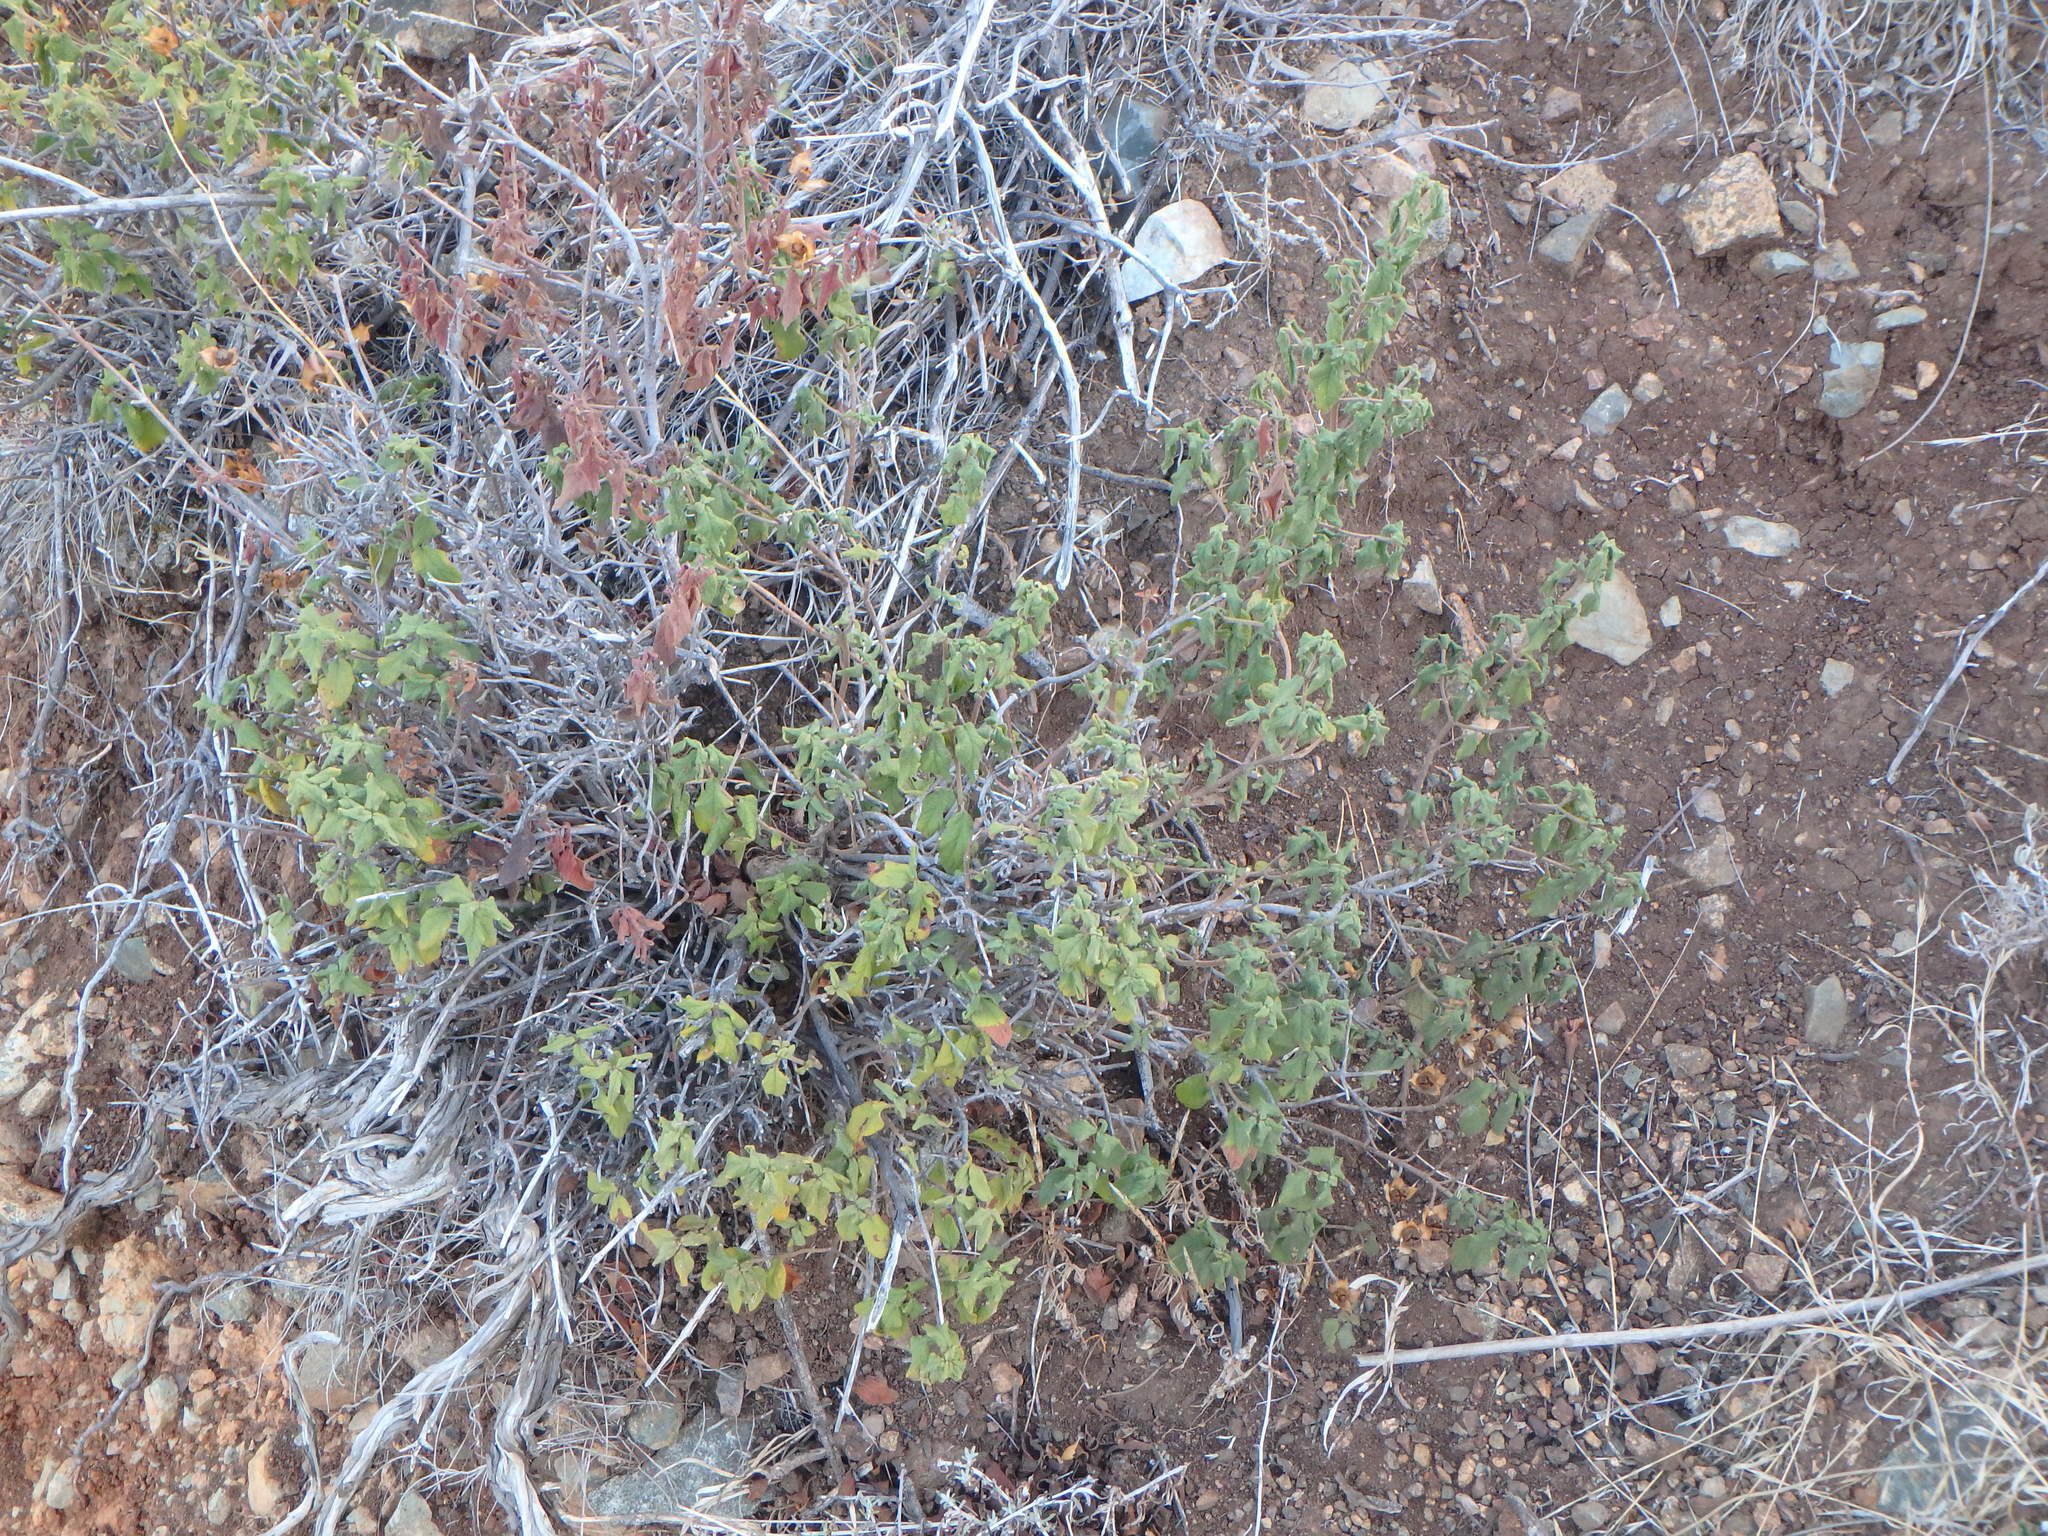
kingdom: Plantae
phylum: Tracheophyta
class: Magnoliopsida
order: Boraginales
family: Boraginaceae
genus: Lithodora
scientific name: Lithodora hispidula
